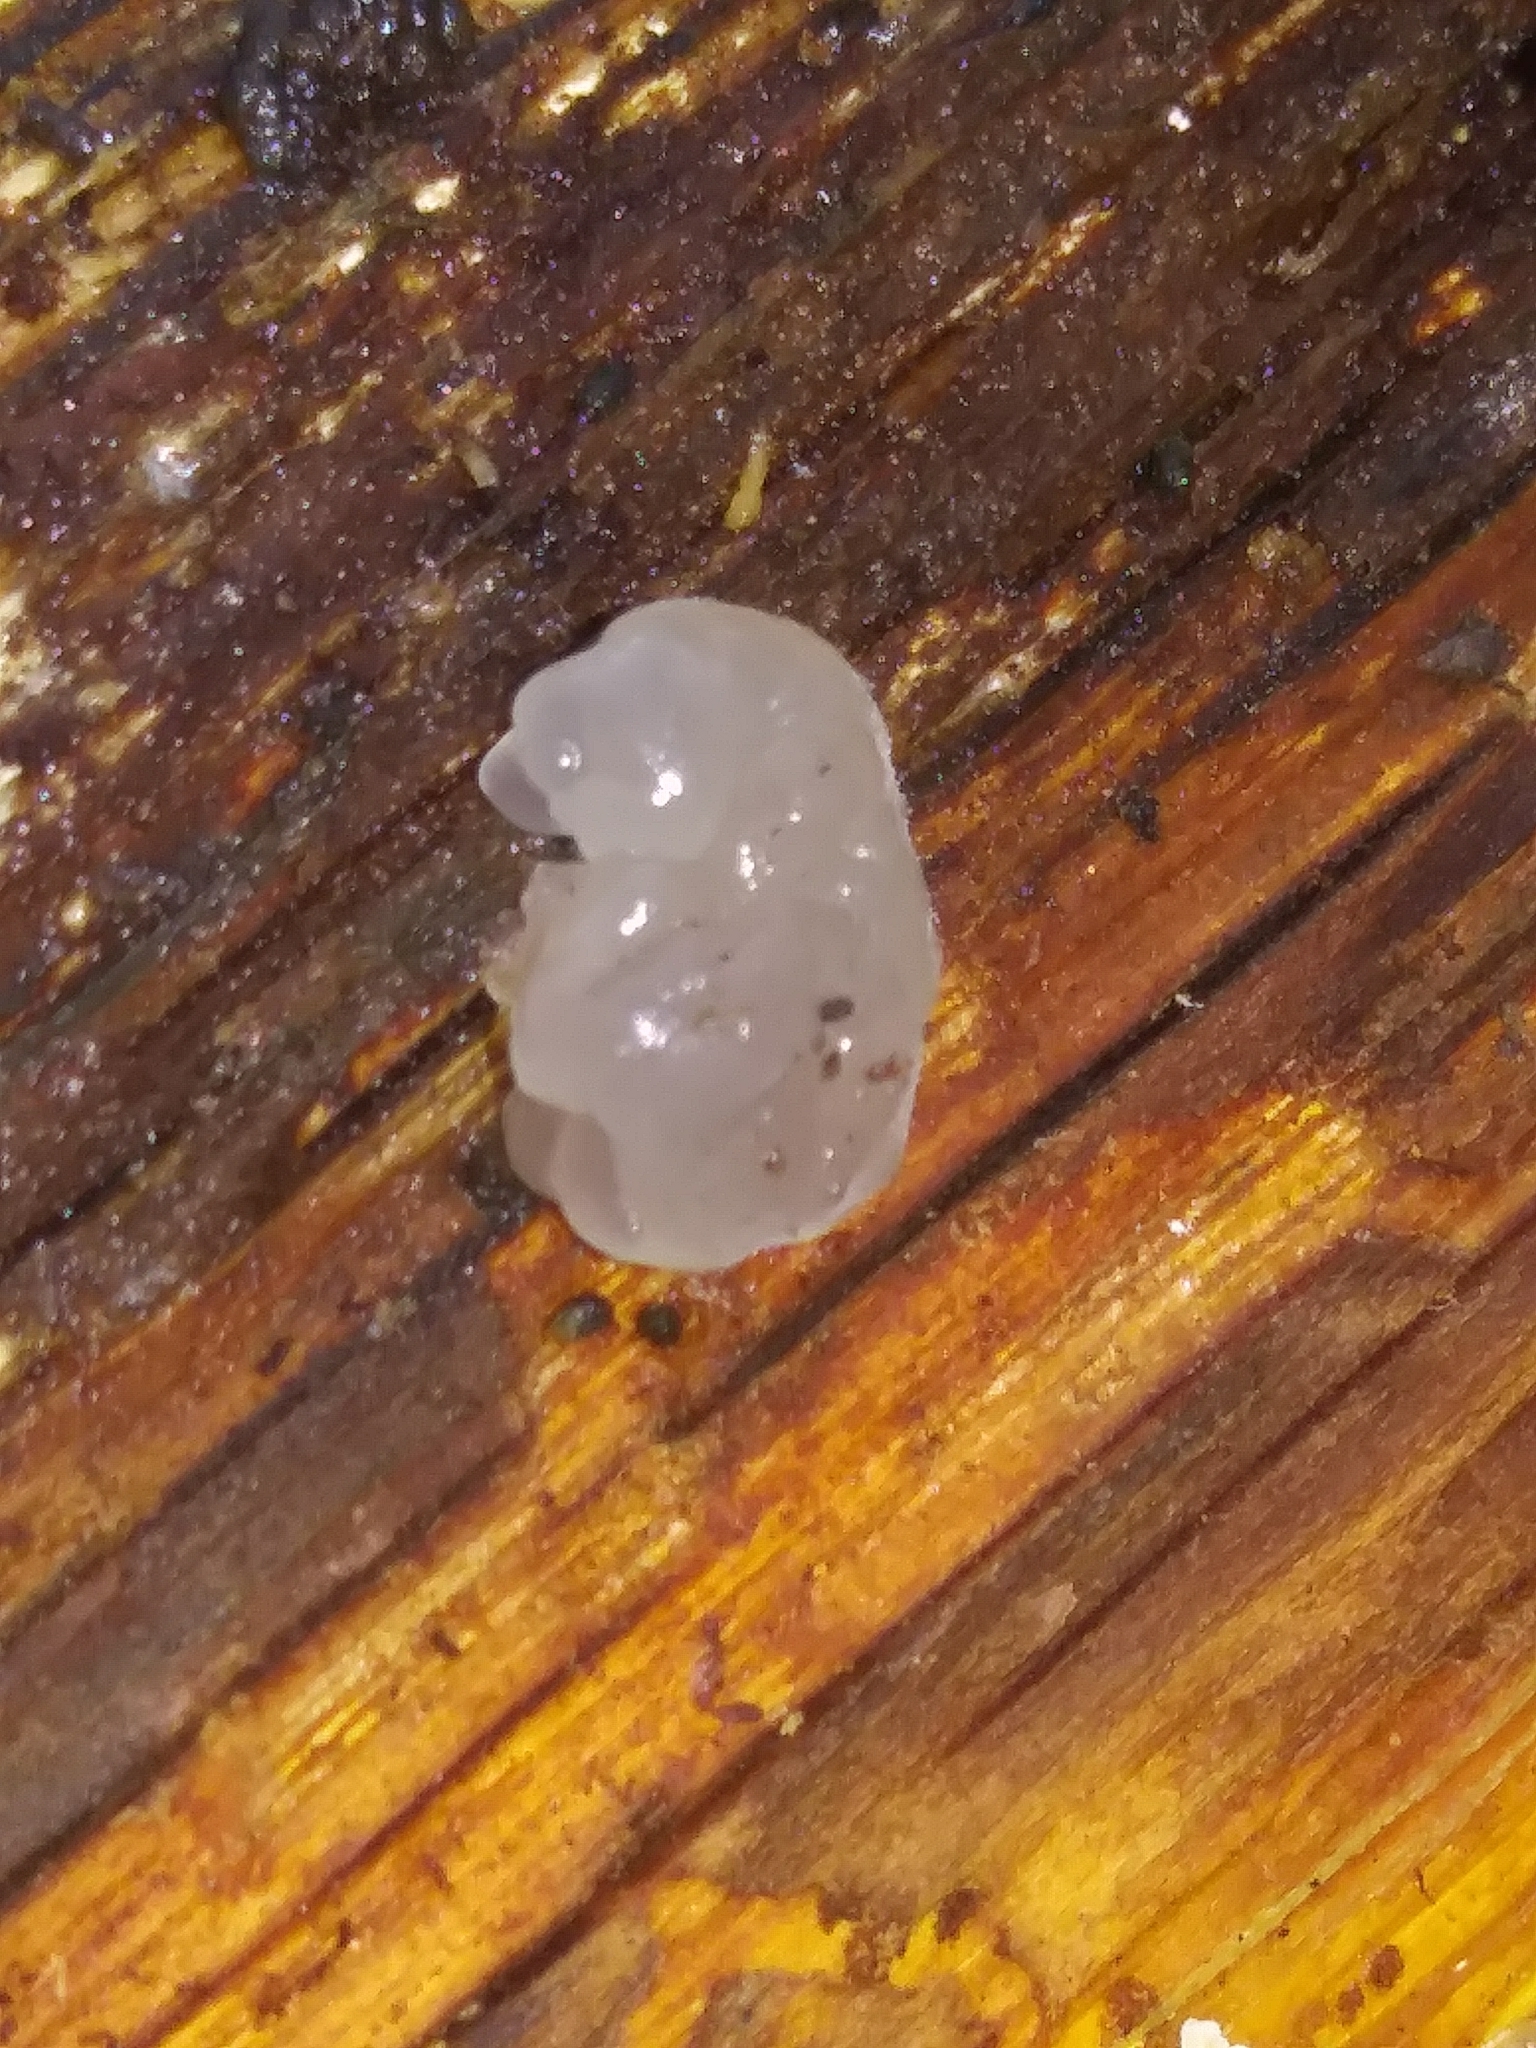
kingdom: Fungi
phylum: Basidiomycota
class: Agaricomycetes
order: Auriculariales
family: Hyaloriaceae
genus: Myxarium
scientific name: Myxarium nucleatum
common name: Crystal brain fungus
